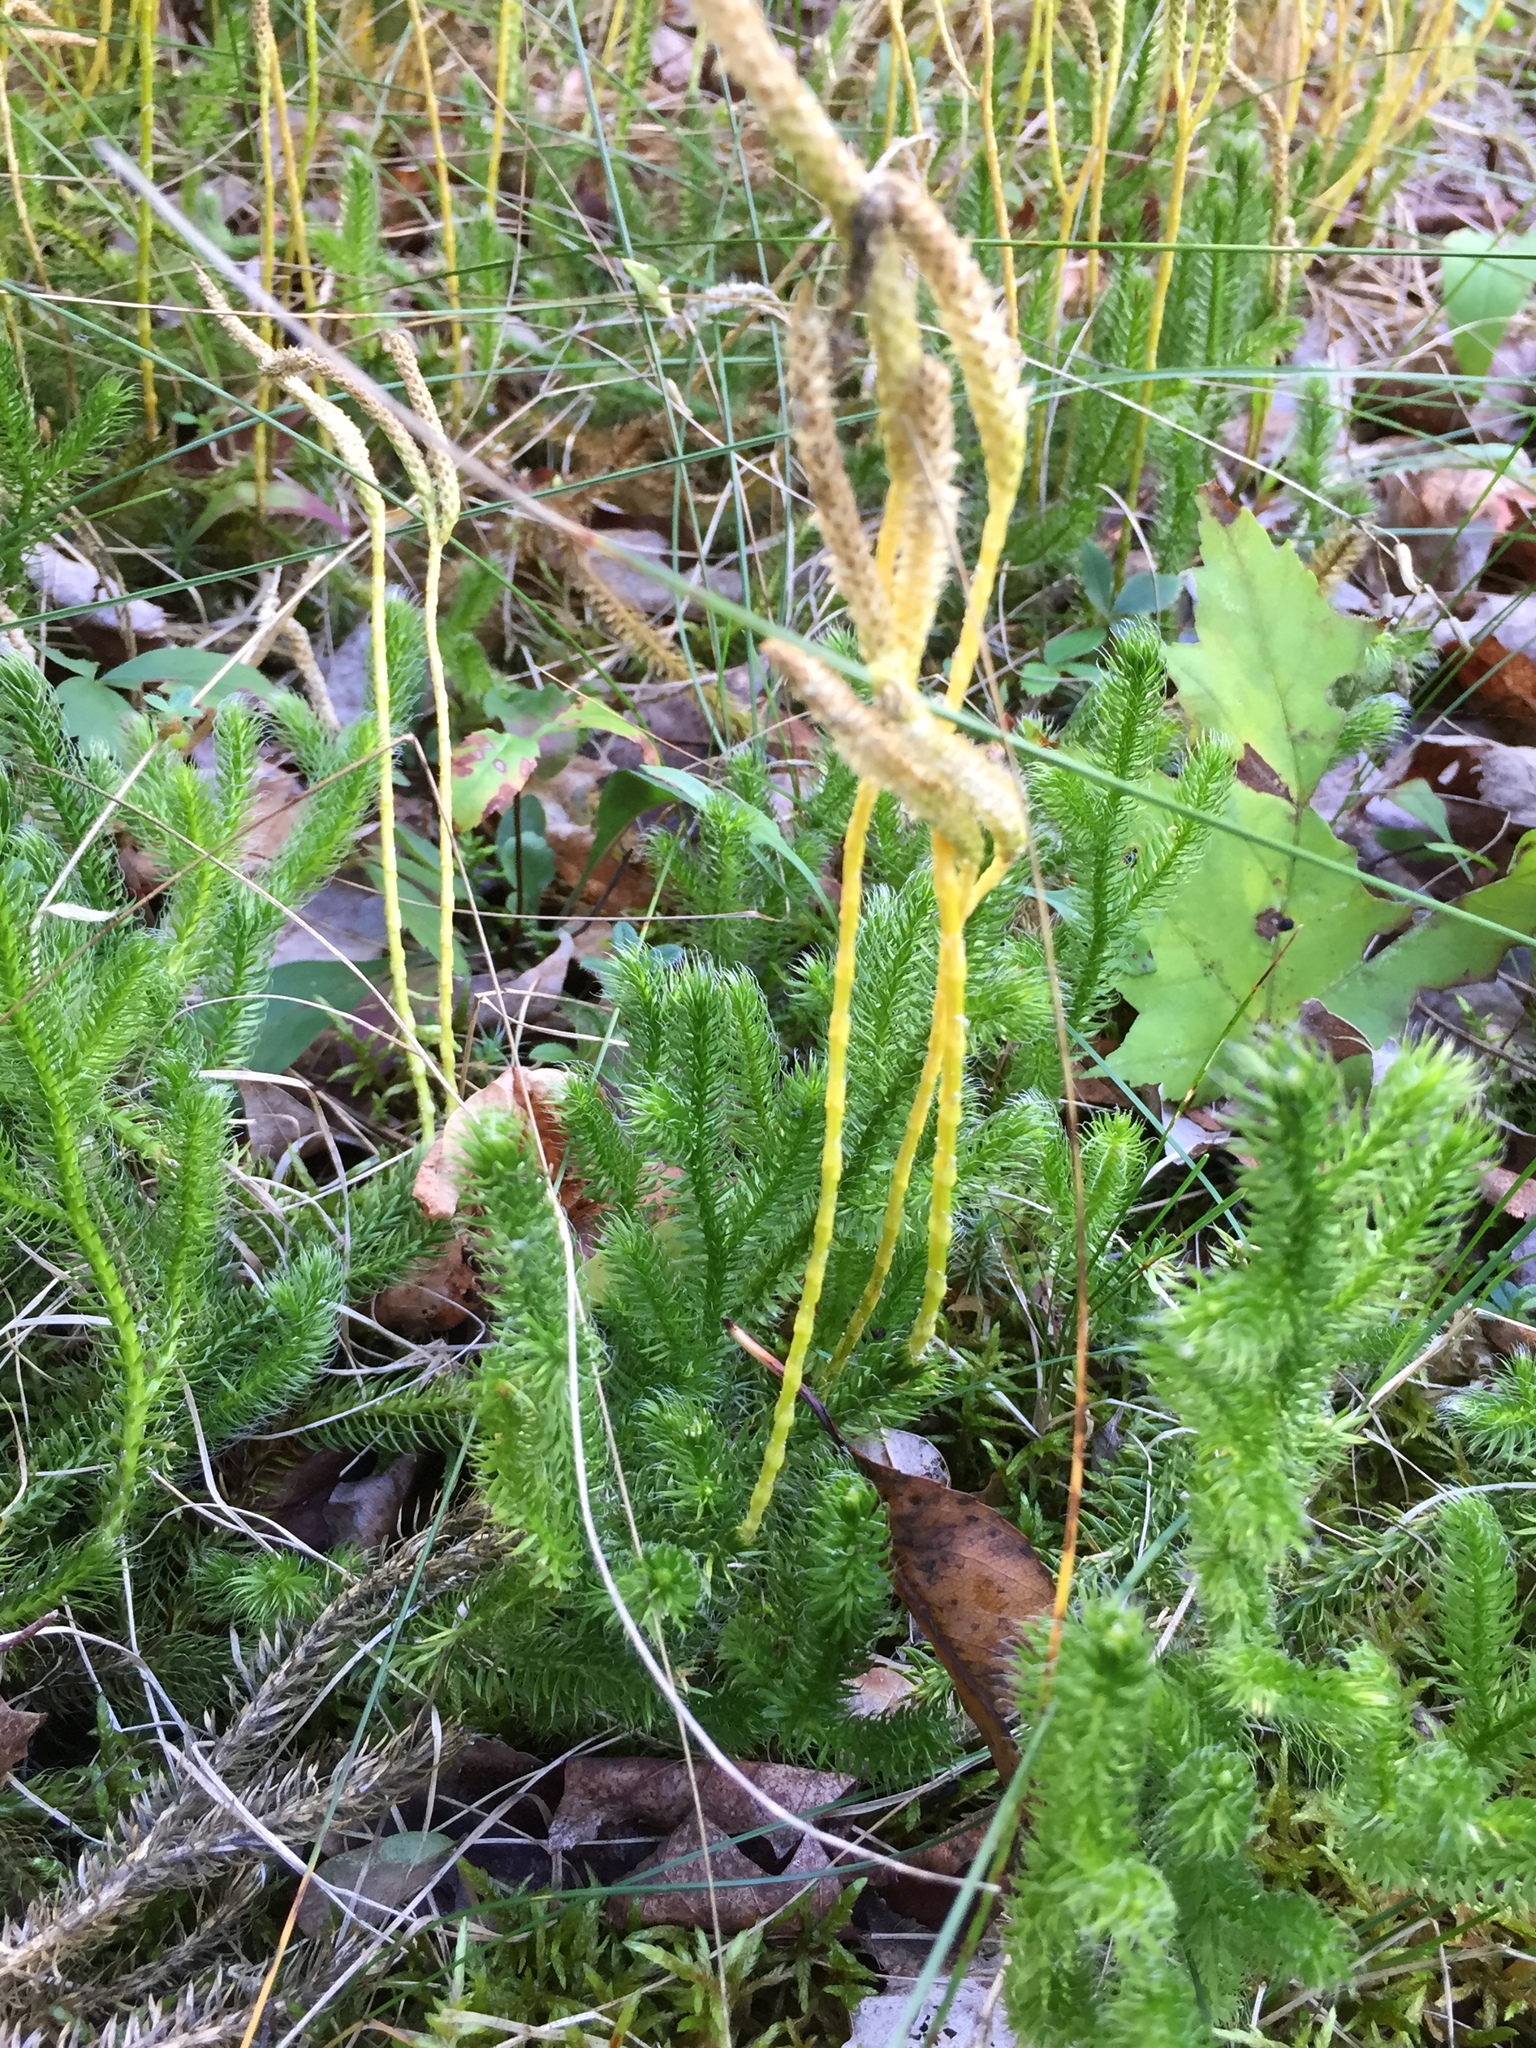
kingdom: Plantae
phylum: Tracheophyta
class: Lycopodiopsida
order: Lycopodiales
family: Lycopodiaceae
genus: Lycopodium
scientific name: Lycopodium clavatum
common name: Stag's-horn clubmoss
